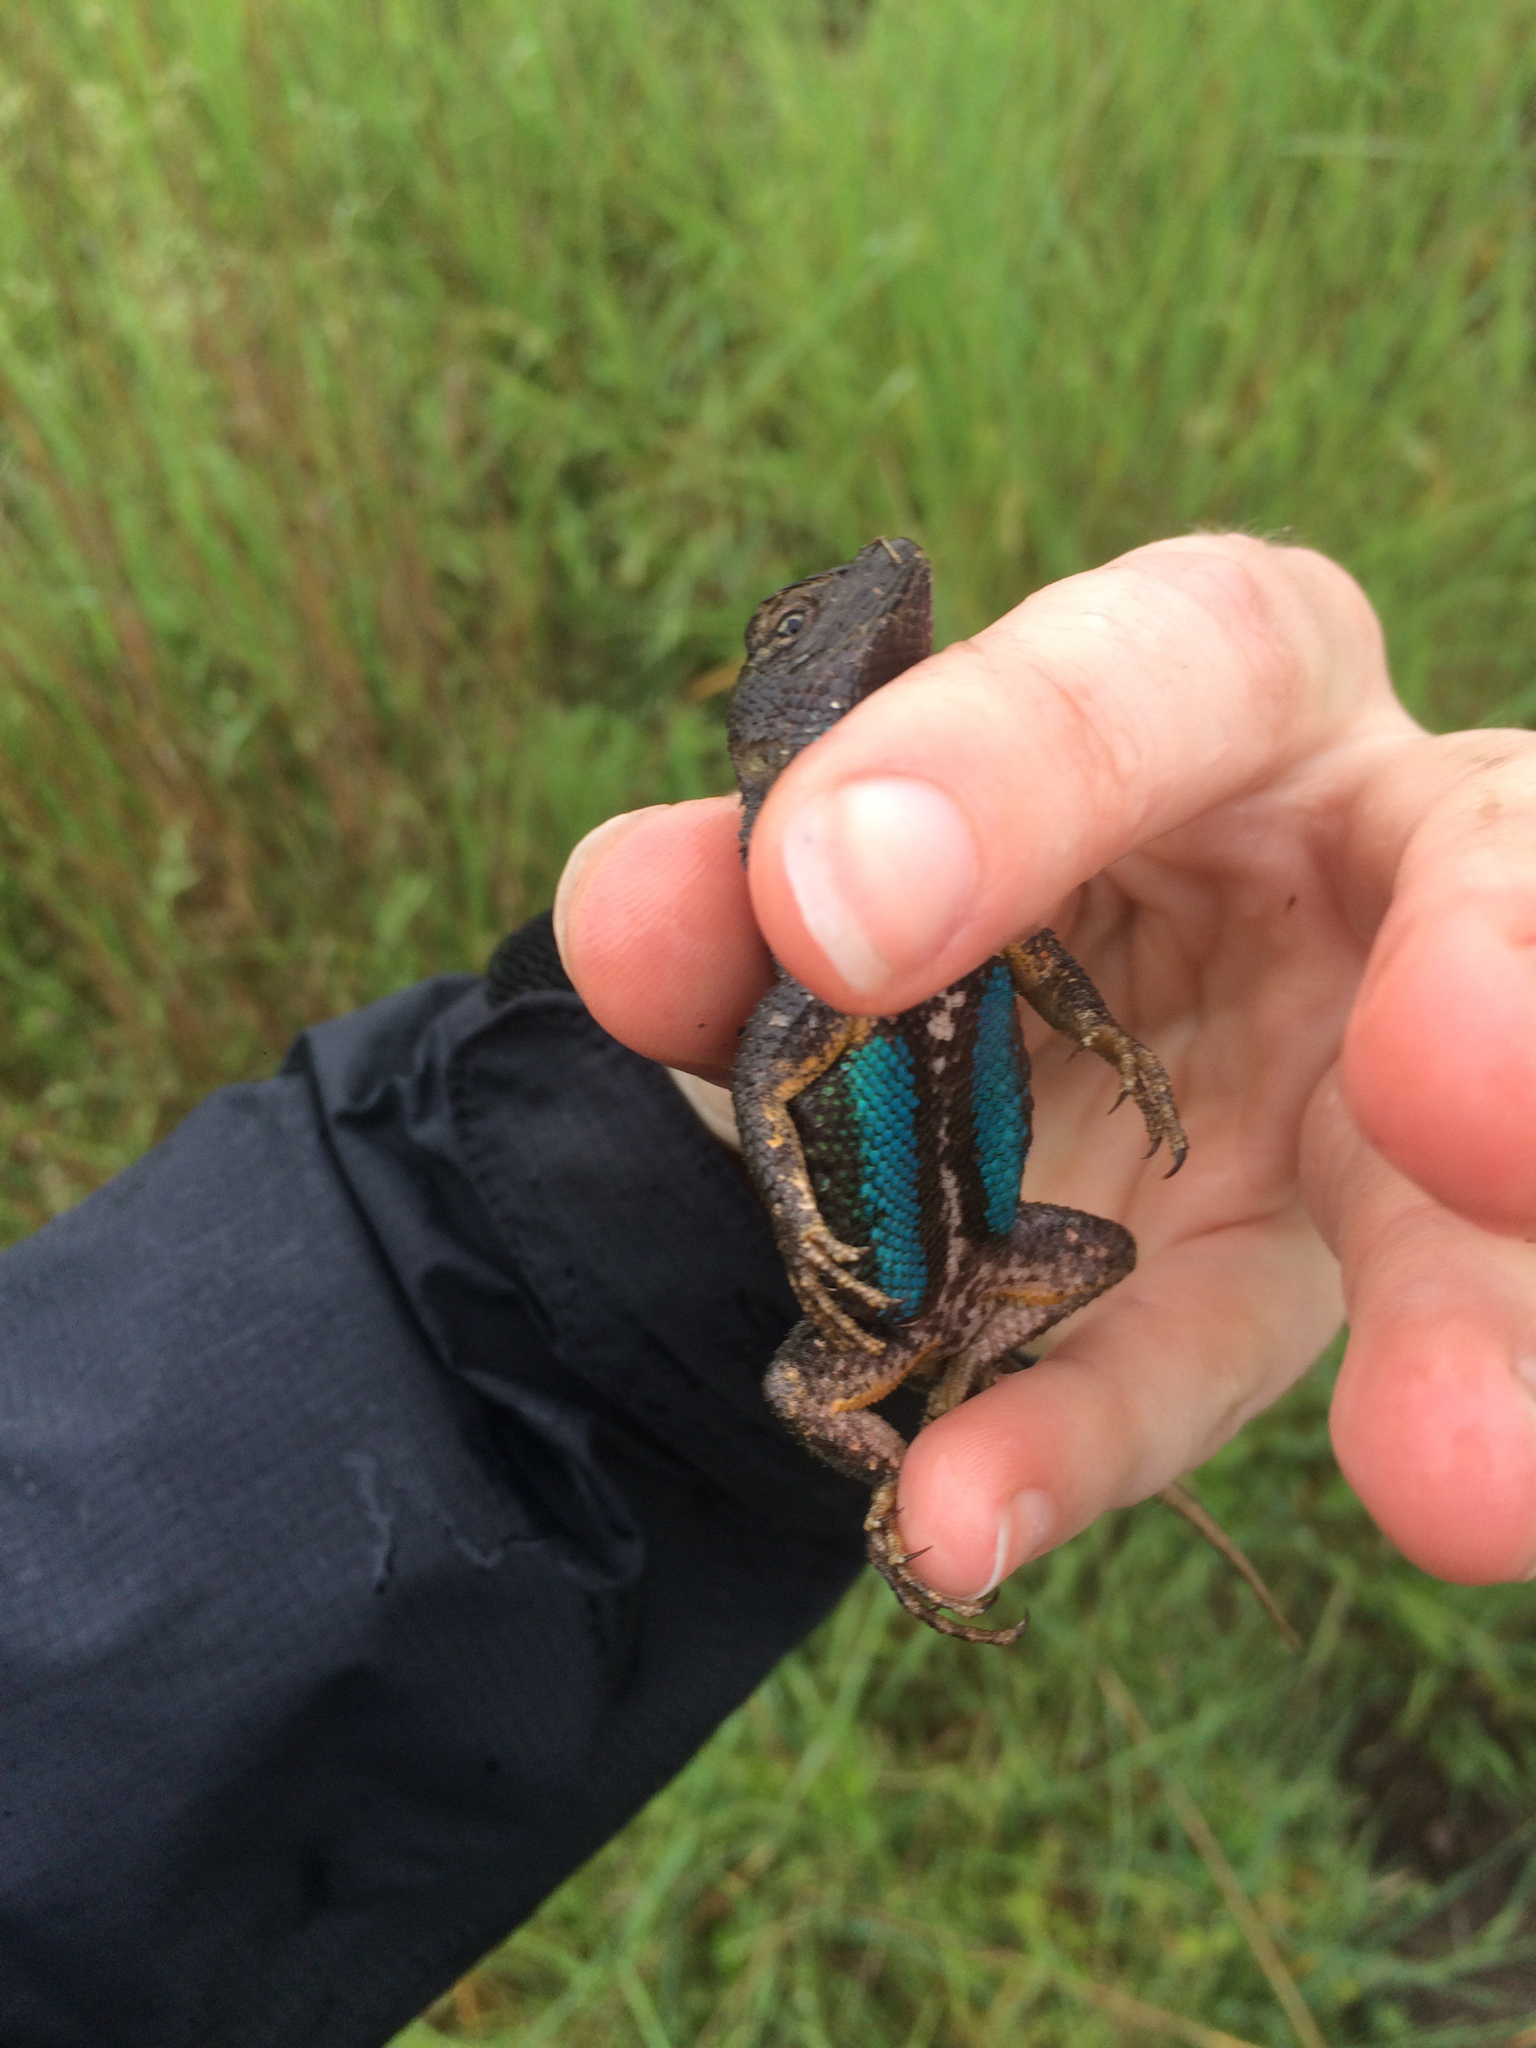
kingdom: Animalia
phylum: Chordata
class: Squamata
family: Phrynosomatidae
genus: Sceloporus
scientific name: Sceloporus occidentalis
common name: Western fence lizard
